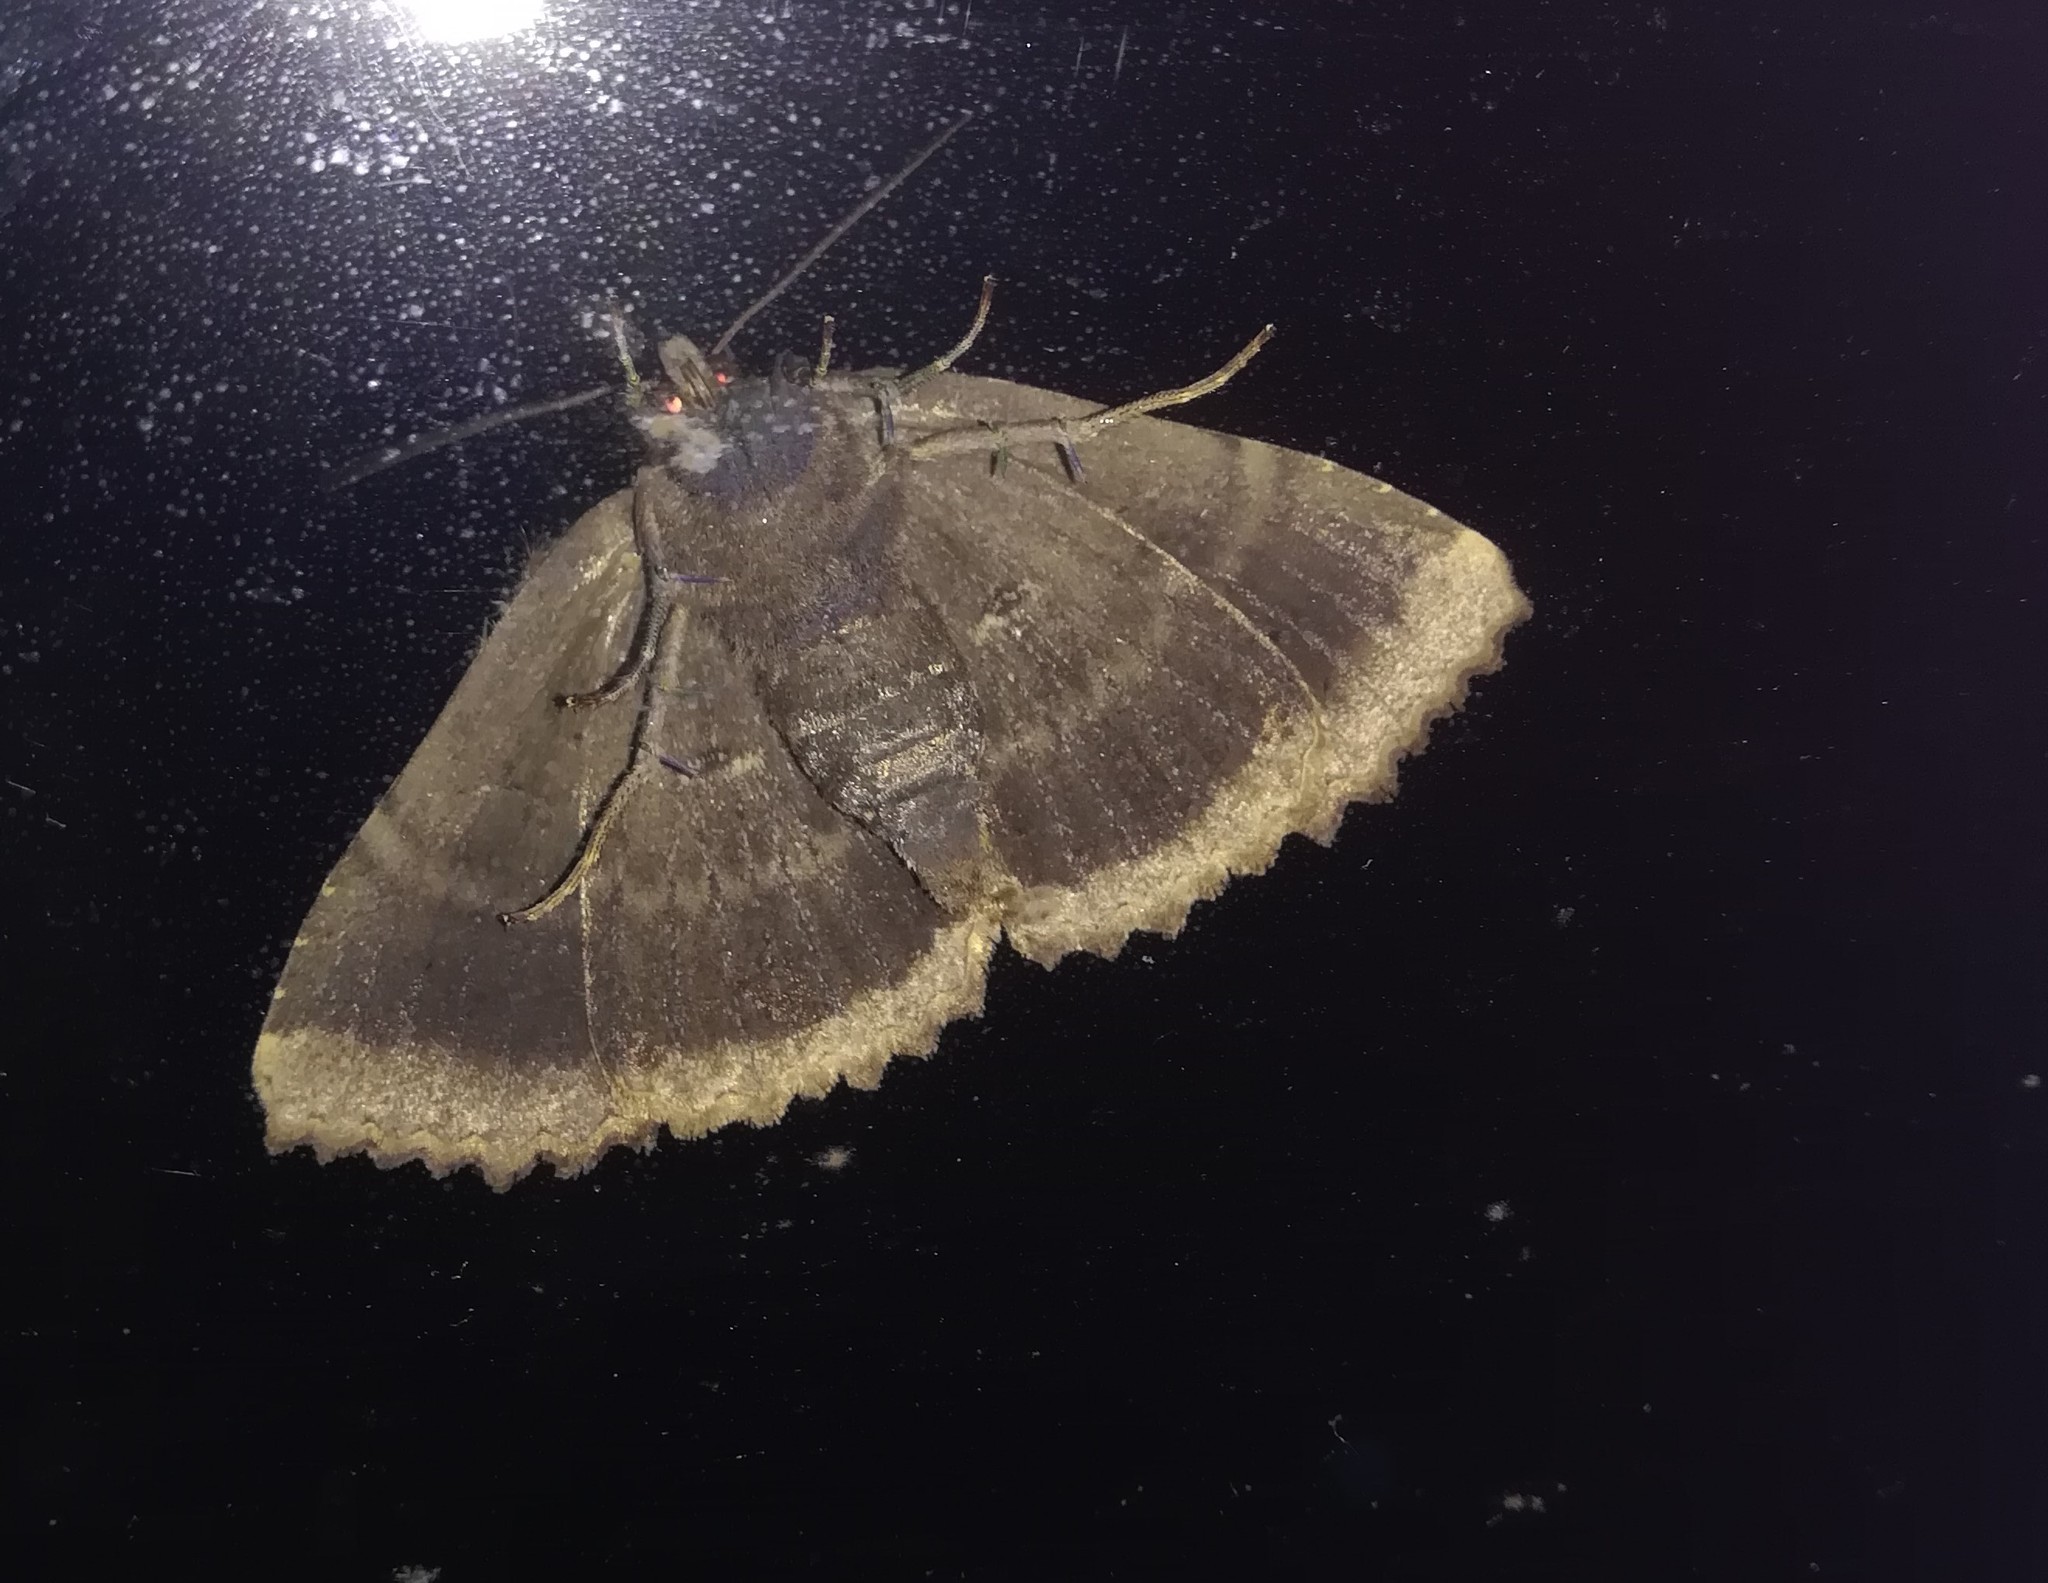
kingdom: Animalia
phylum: Arthropoda
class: Insecta
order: Lepidoptera
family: Noctuidae
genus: Mormo
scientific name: Mormo maura
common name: Old lady
